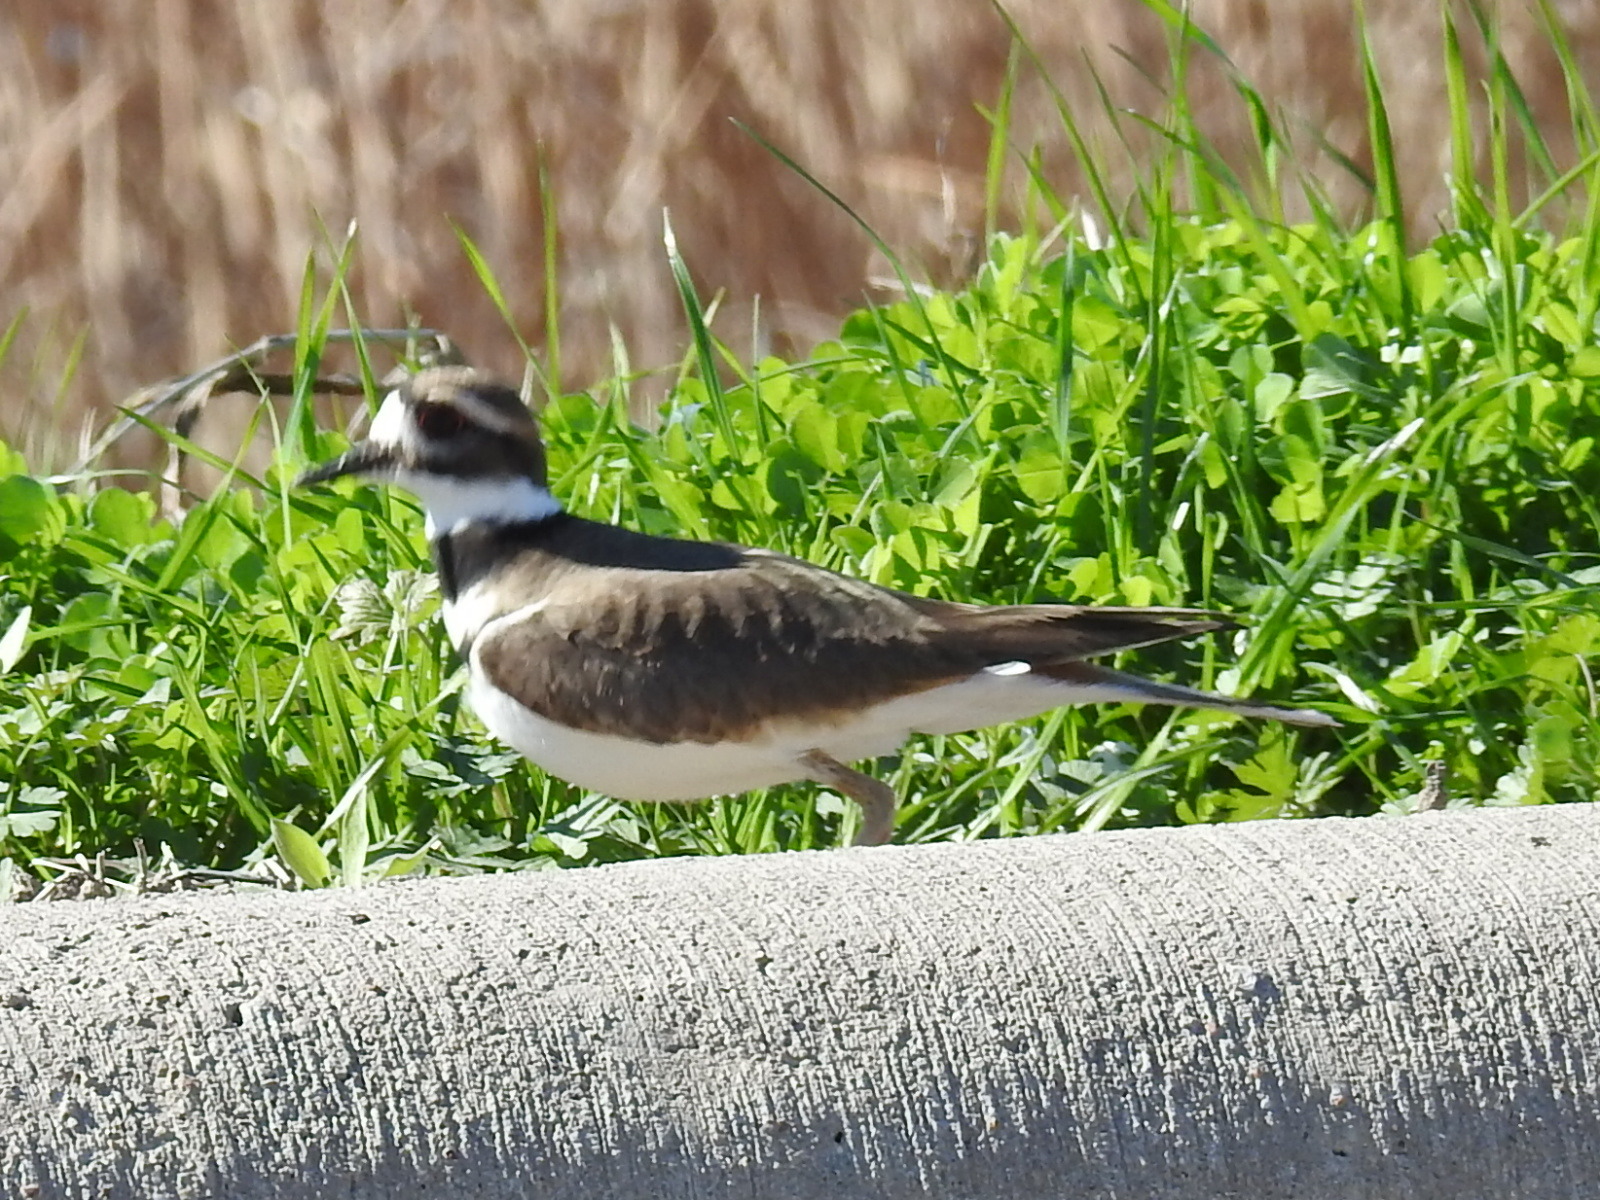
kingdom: Animalia
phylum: Chordata
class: Aves
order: Charadriiformes
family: Charadriidae
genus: Charadrius
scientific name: Charadrius vociferus
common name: Killdeer
